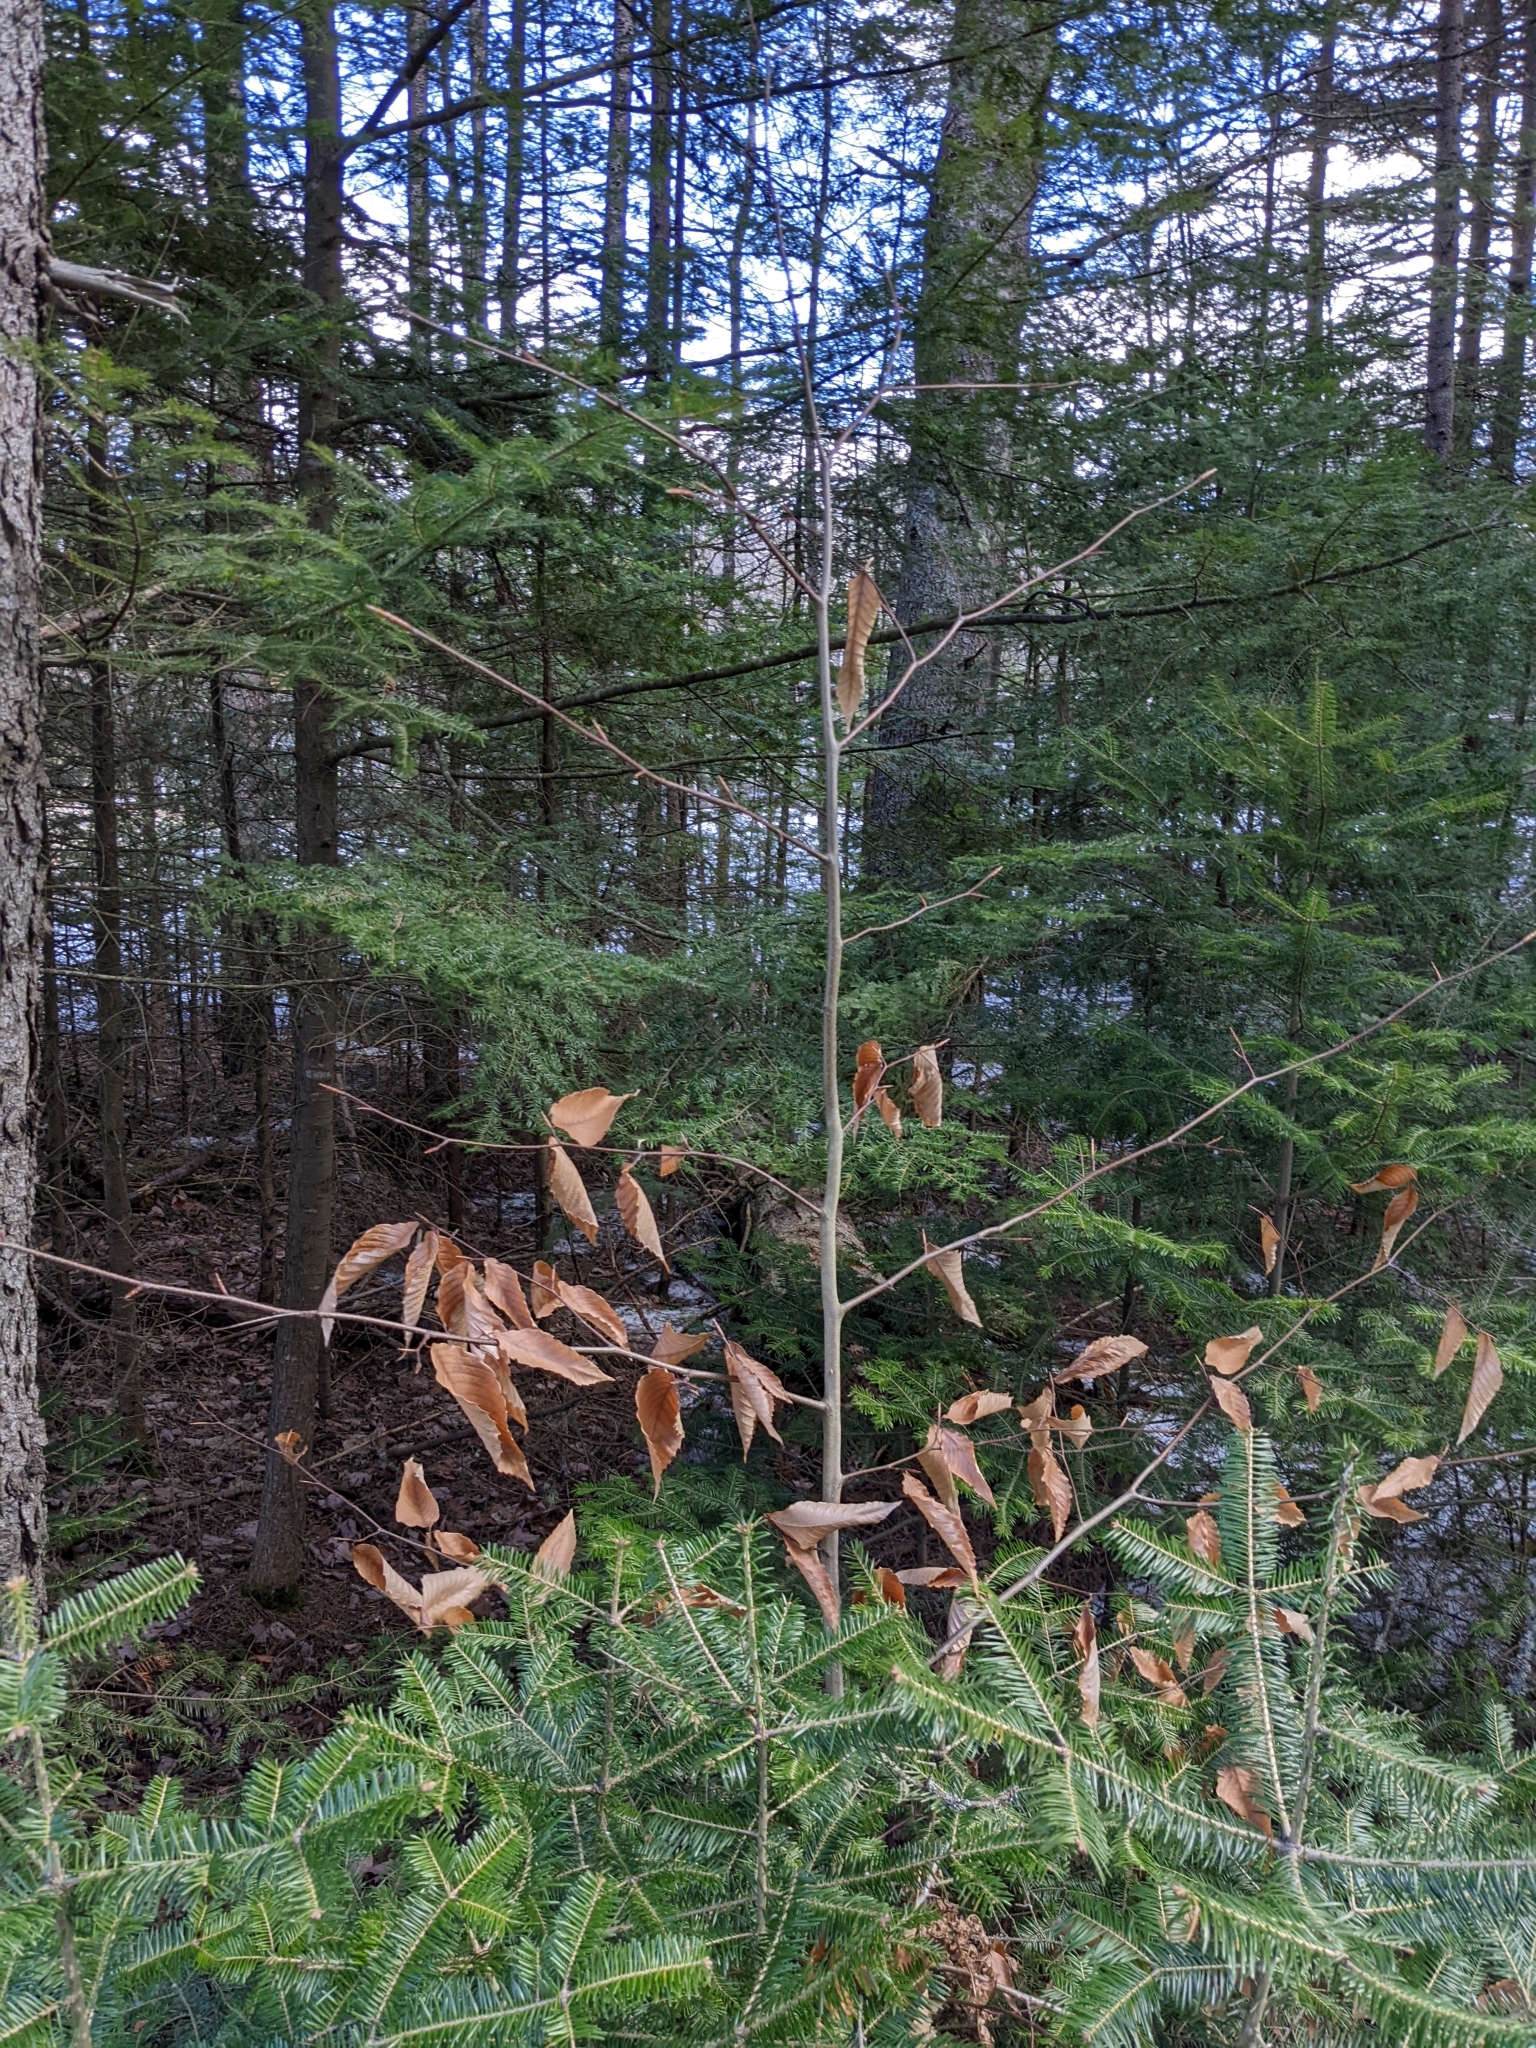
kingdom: Plantae
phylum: Tracheophyta
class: Magnoliopsida
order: Fagales
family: Fagaceae
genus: Fagus
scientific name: Fagus grandifolia
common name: American beech
